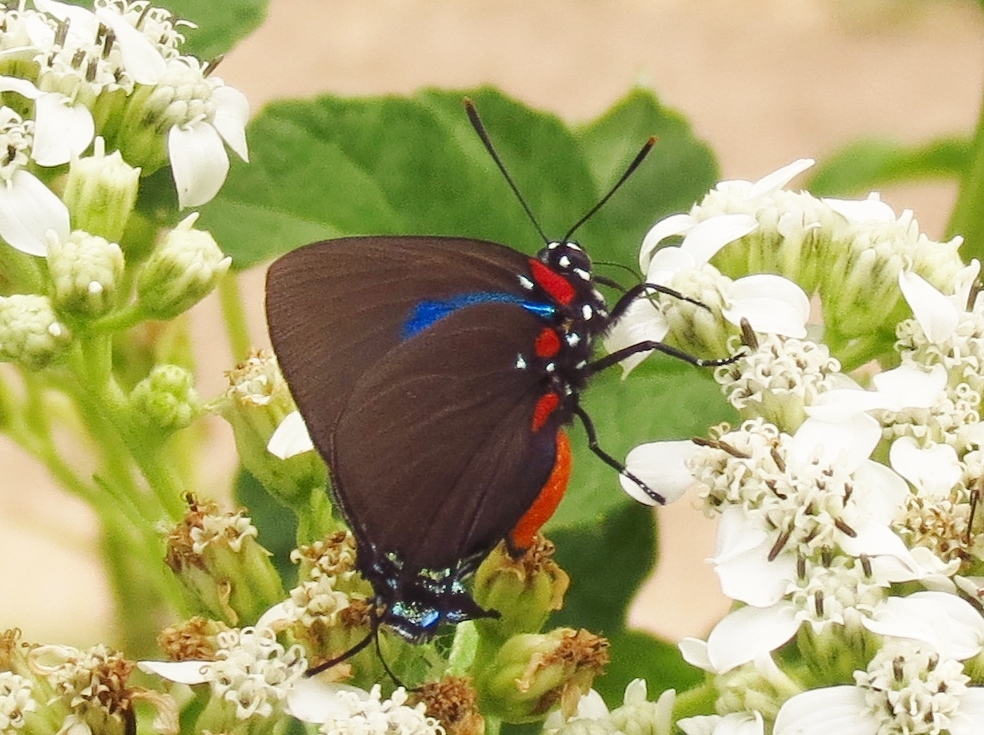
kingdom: Animalia
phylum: Arthropoda
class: Insecta
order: Lepidoptera
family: Lycaenidae
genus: Atlides
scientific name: Atlides halesus
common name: Great purple hairstreak
